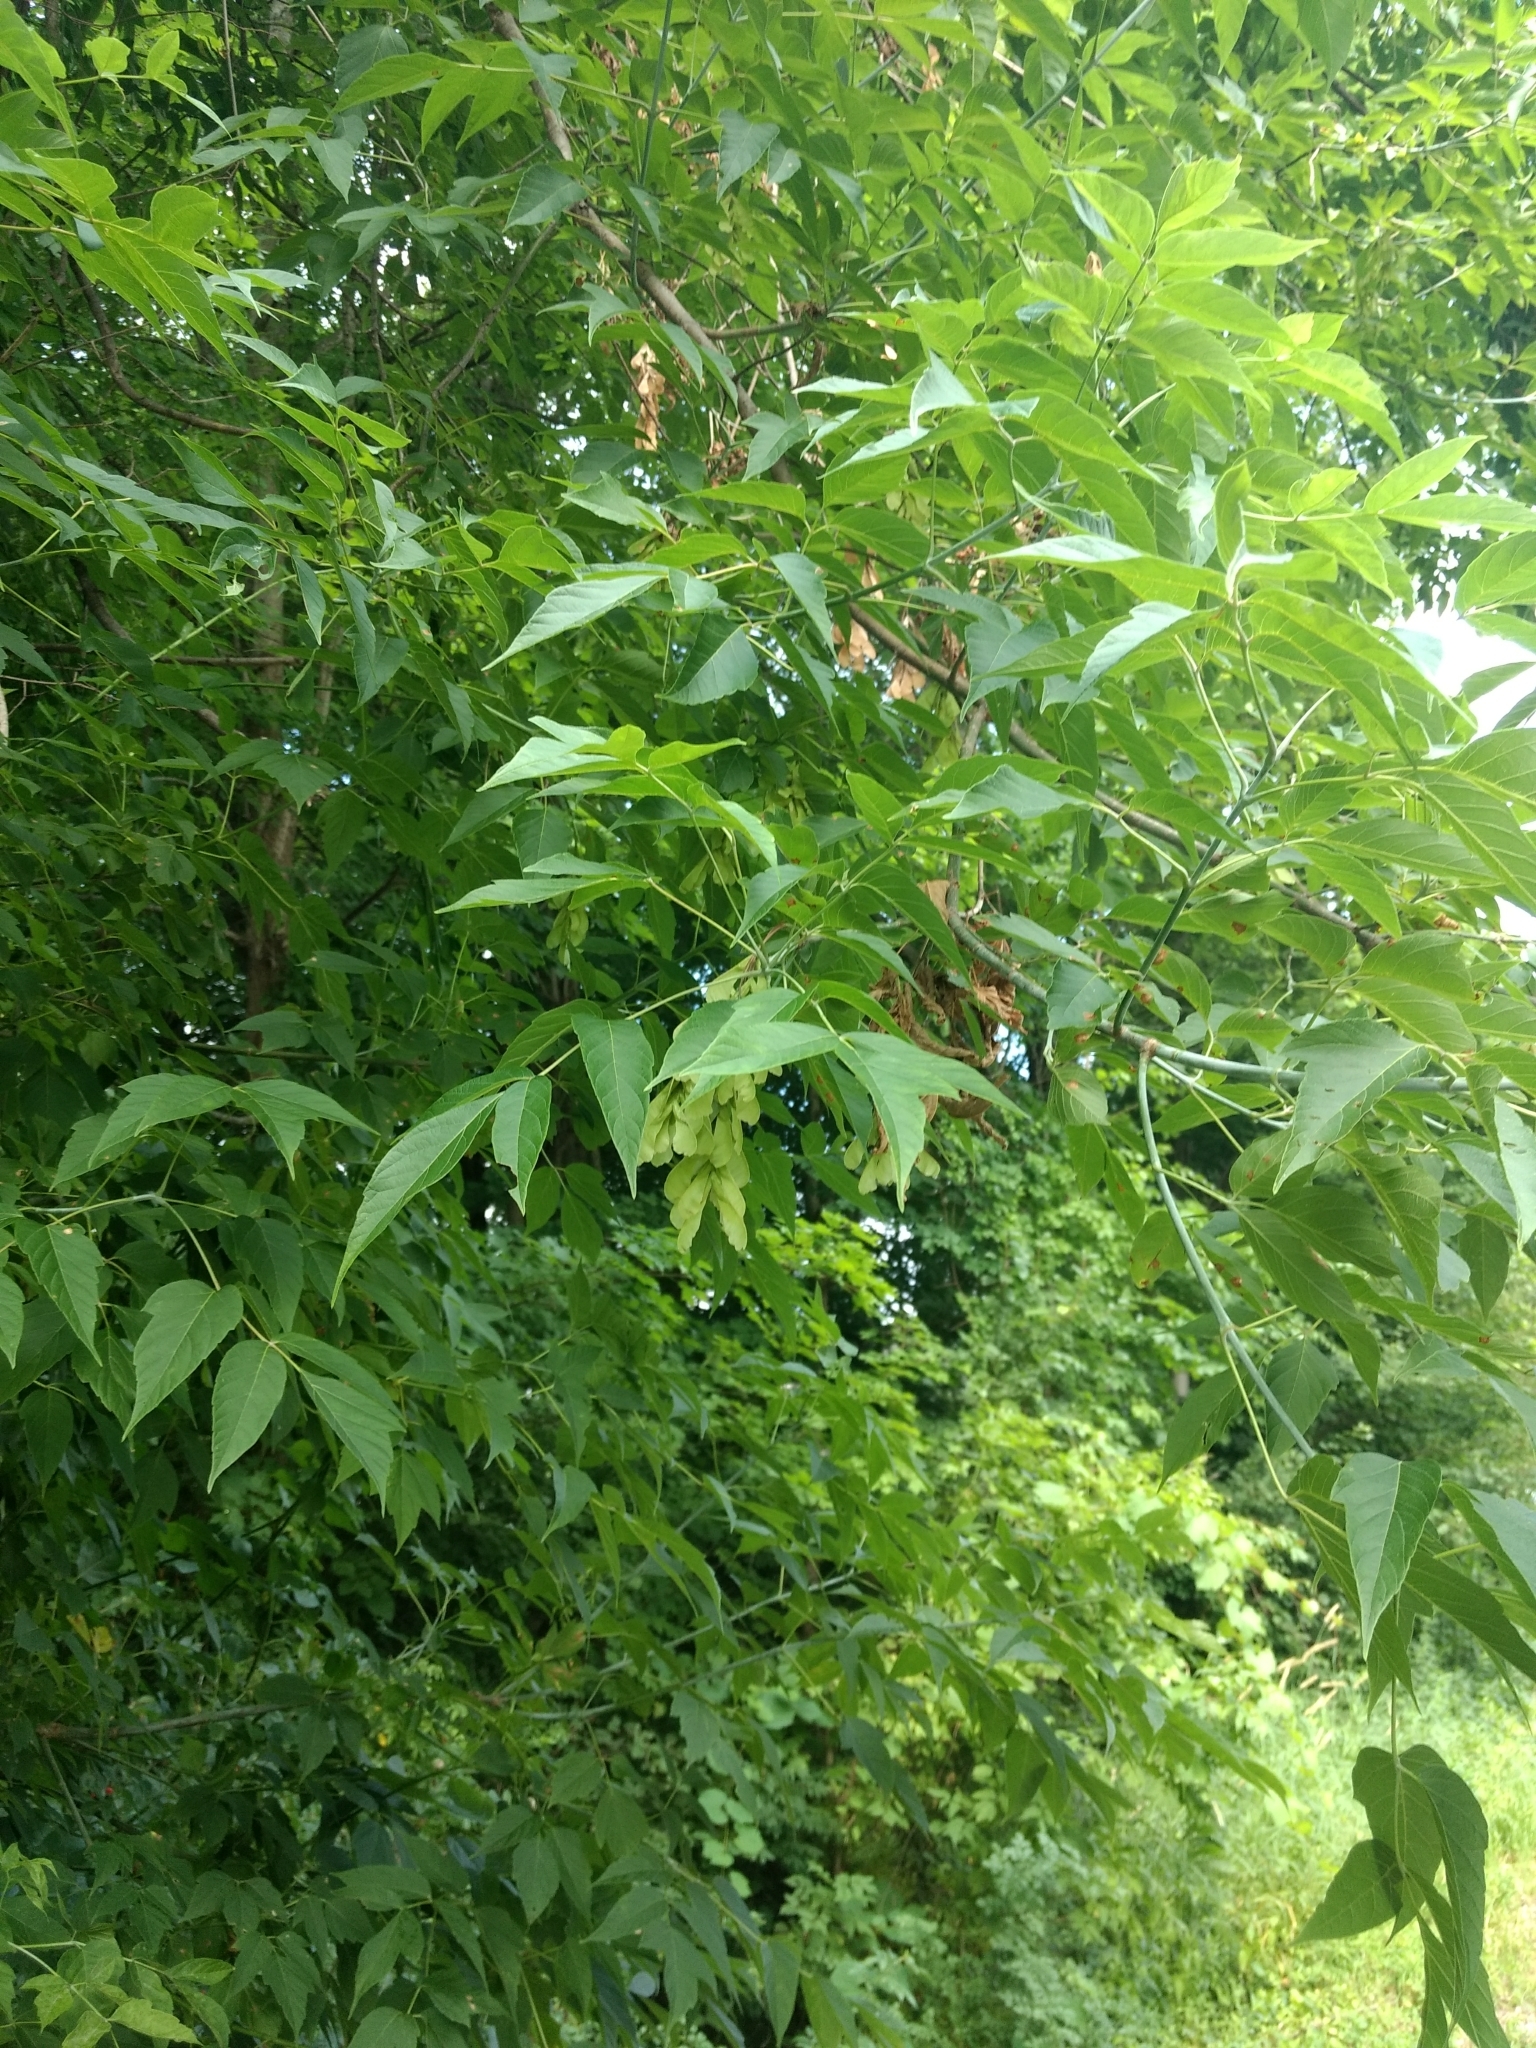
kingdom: Plantae
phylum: Tracheophyta
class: Magnoliopsida
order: Sapindales
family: Sapindaceae
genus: Acer
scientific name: Acer negundo
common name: Ashleaf maple
